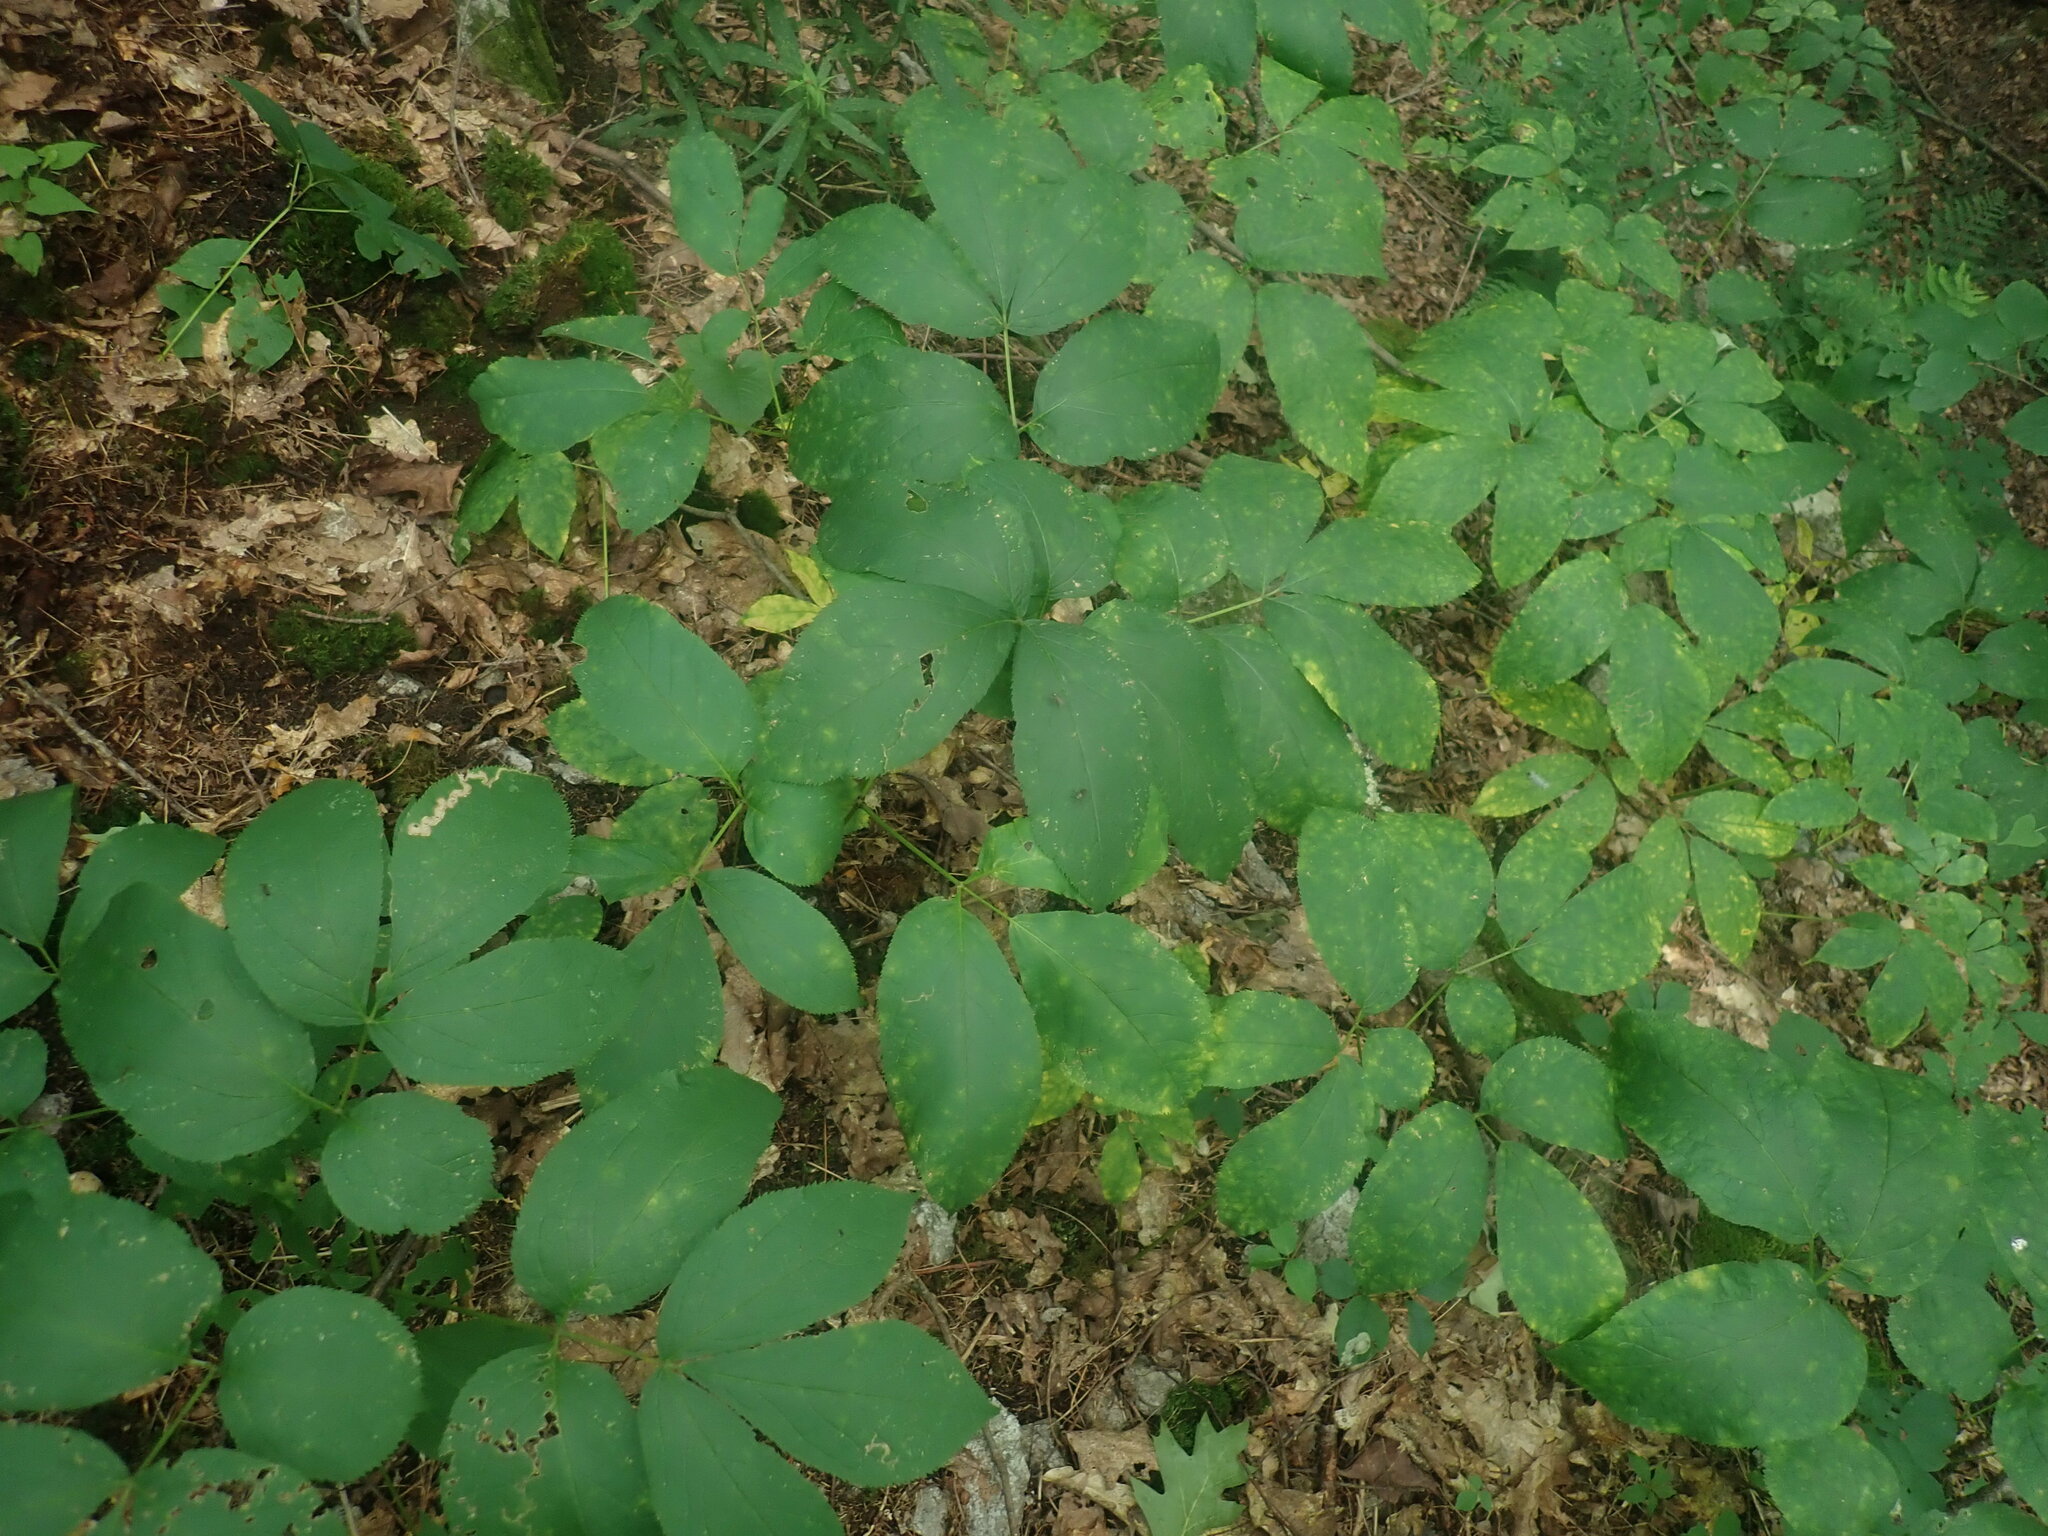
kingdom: Plantae
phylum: Tracheophyta
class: Magnoliopsida
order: Apiales
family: Araliaceae
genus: Aralia
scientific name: Aralia nudicaulis
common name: Wild sarsaparilla
